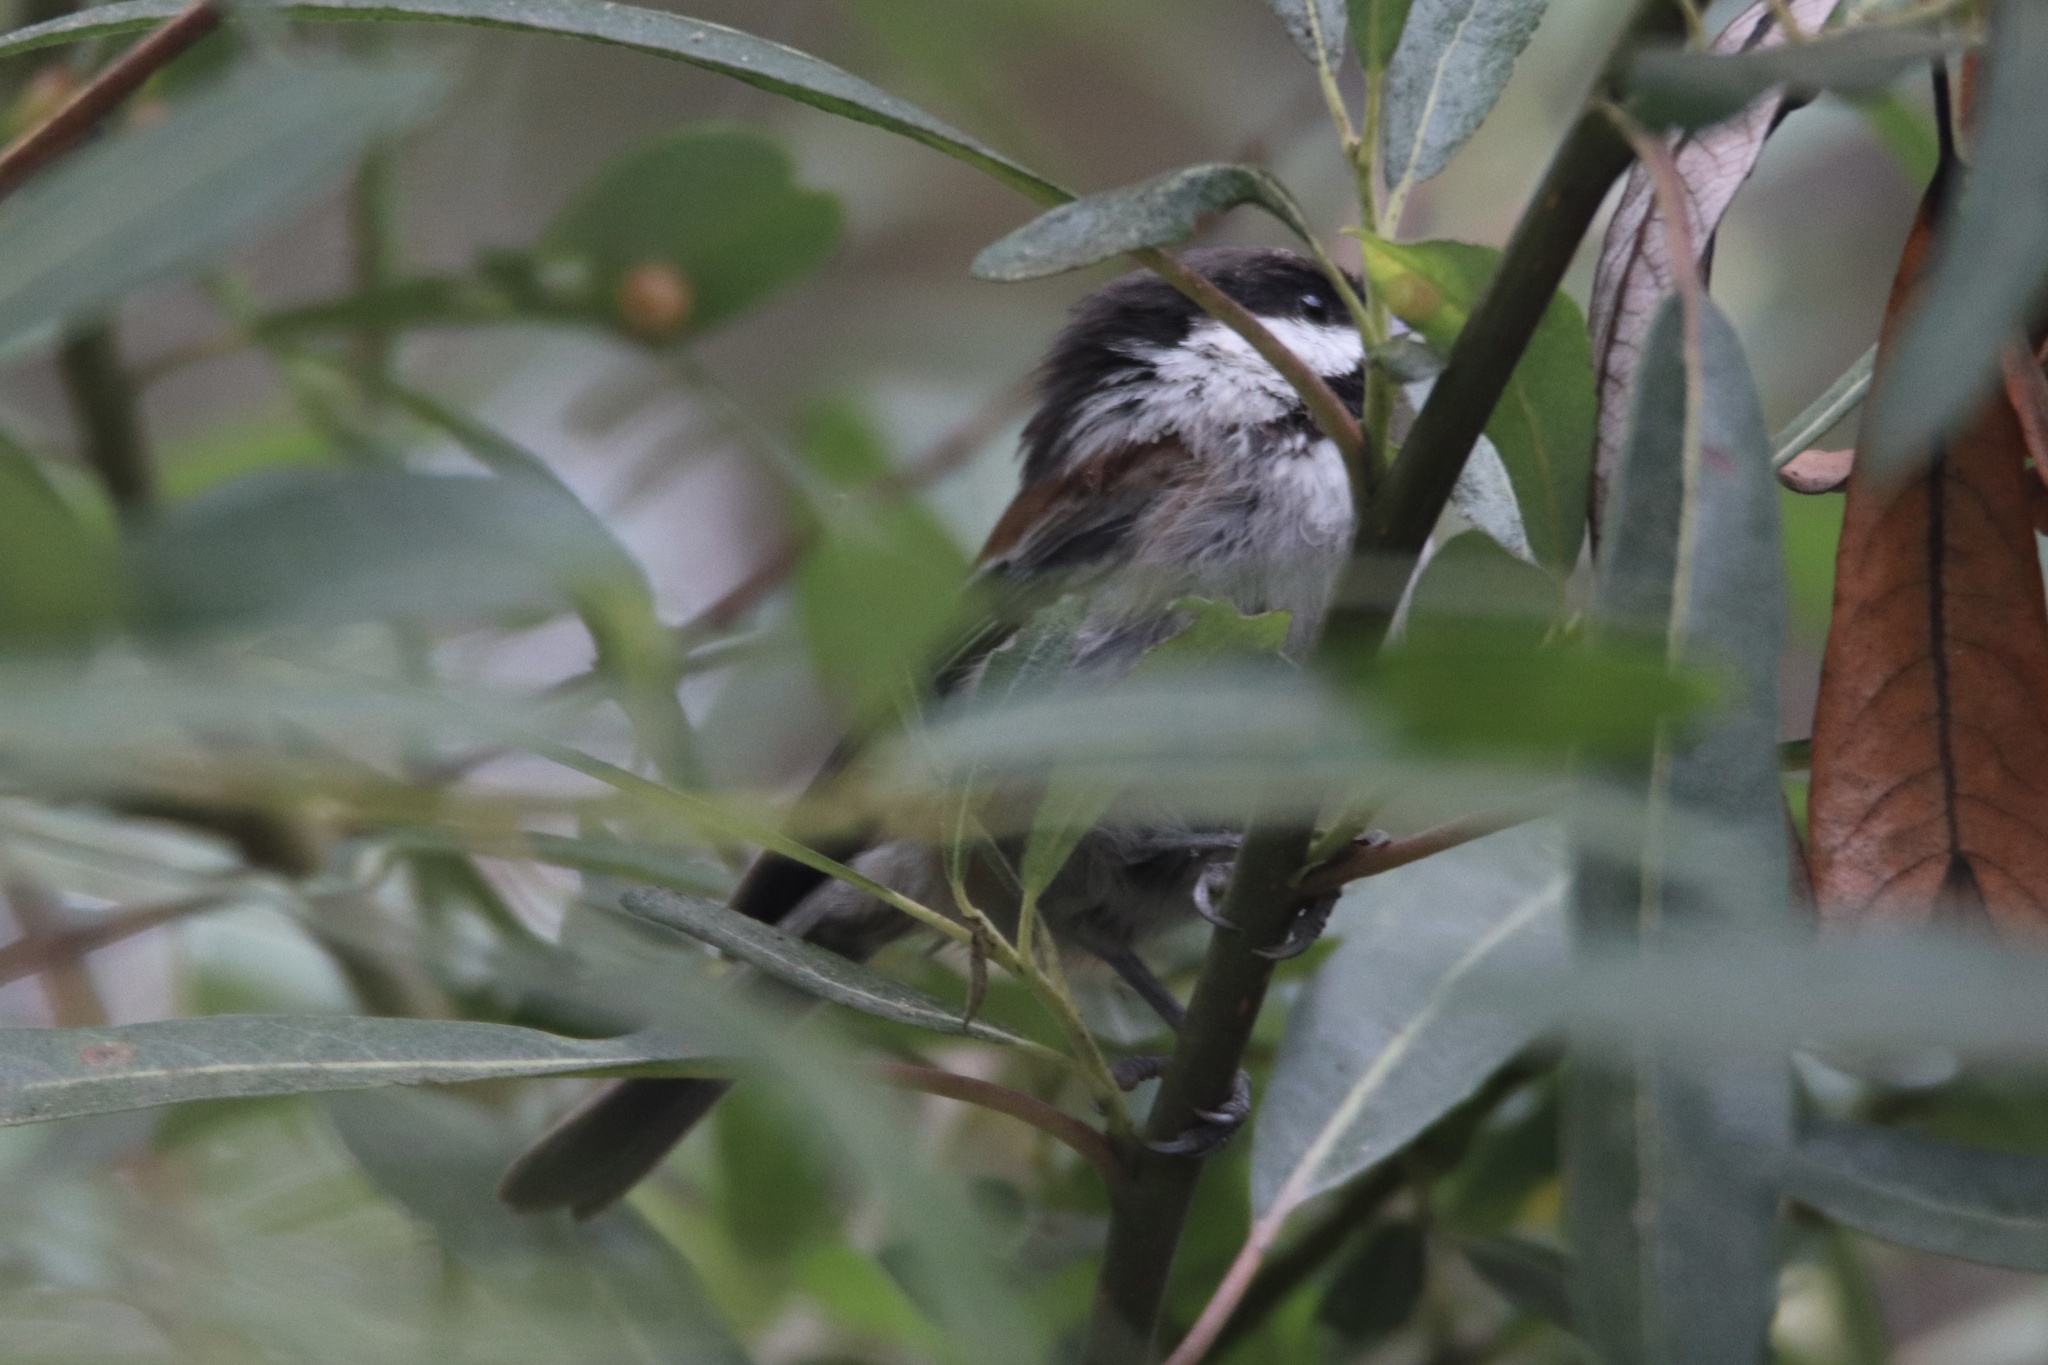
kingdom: Animalia
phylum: Chordata
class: Aves
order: Passeriformes
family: Paridae
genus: Poecile
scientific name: Poecile rufescens
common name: Chestnut-backed chickadee
